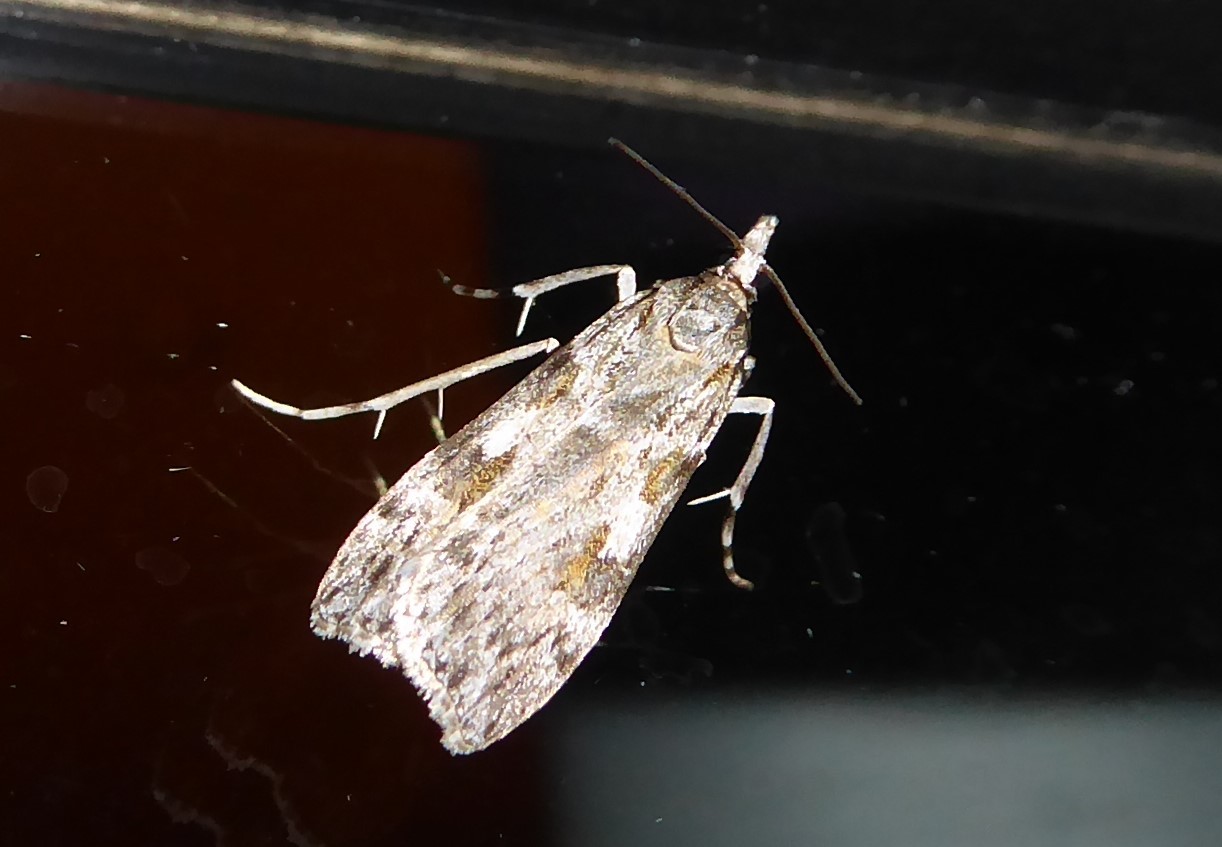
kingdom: Animalia
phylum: Arthropoda
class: Insecta
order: Lepidoptera
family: Crambidae
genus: Scoparia
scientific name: Scoparia halopis
